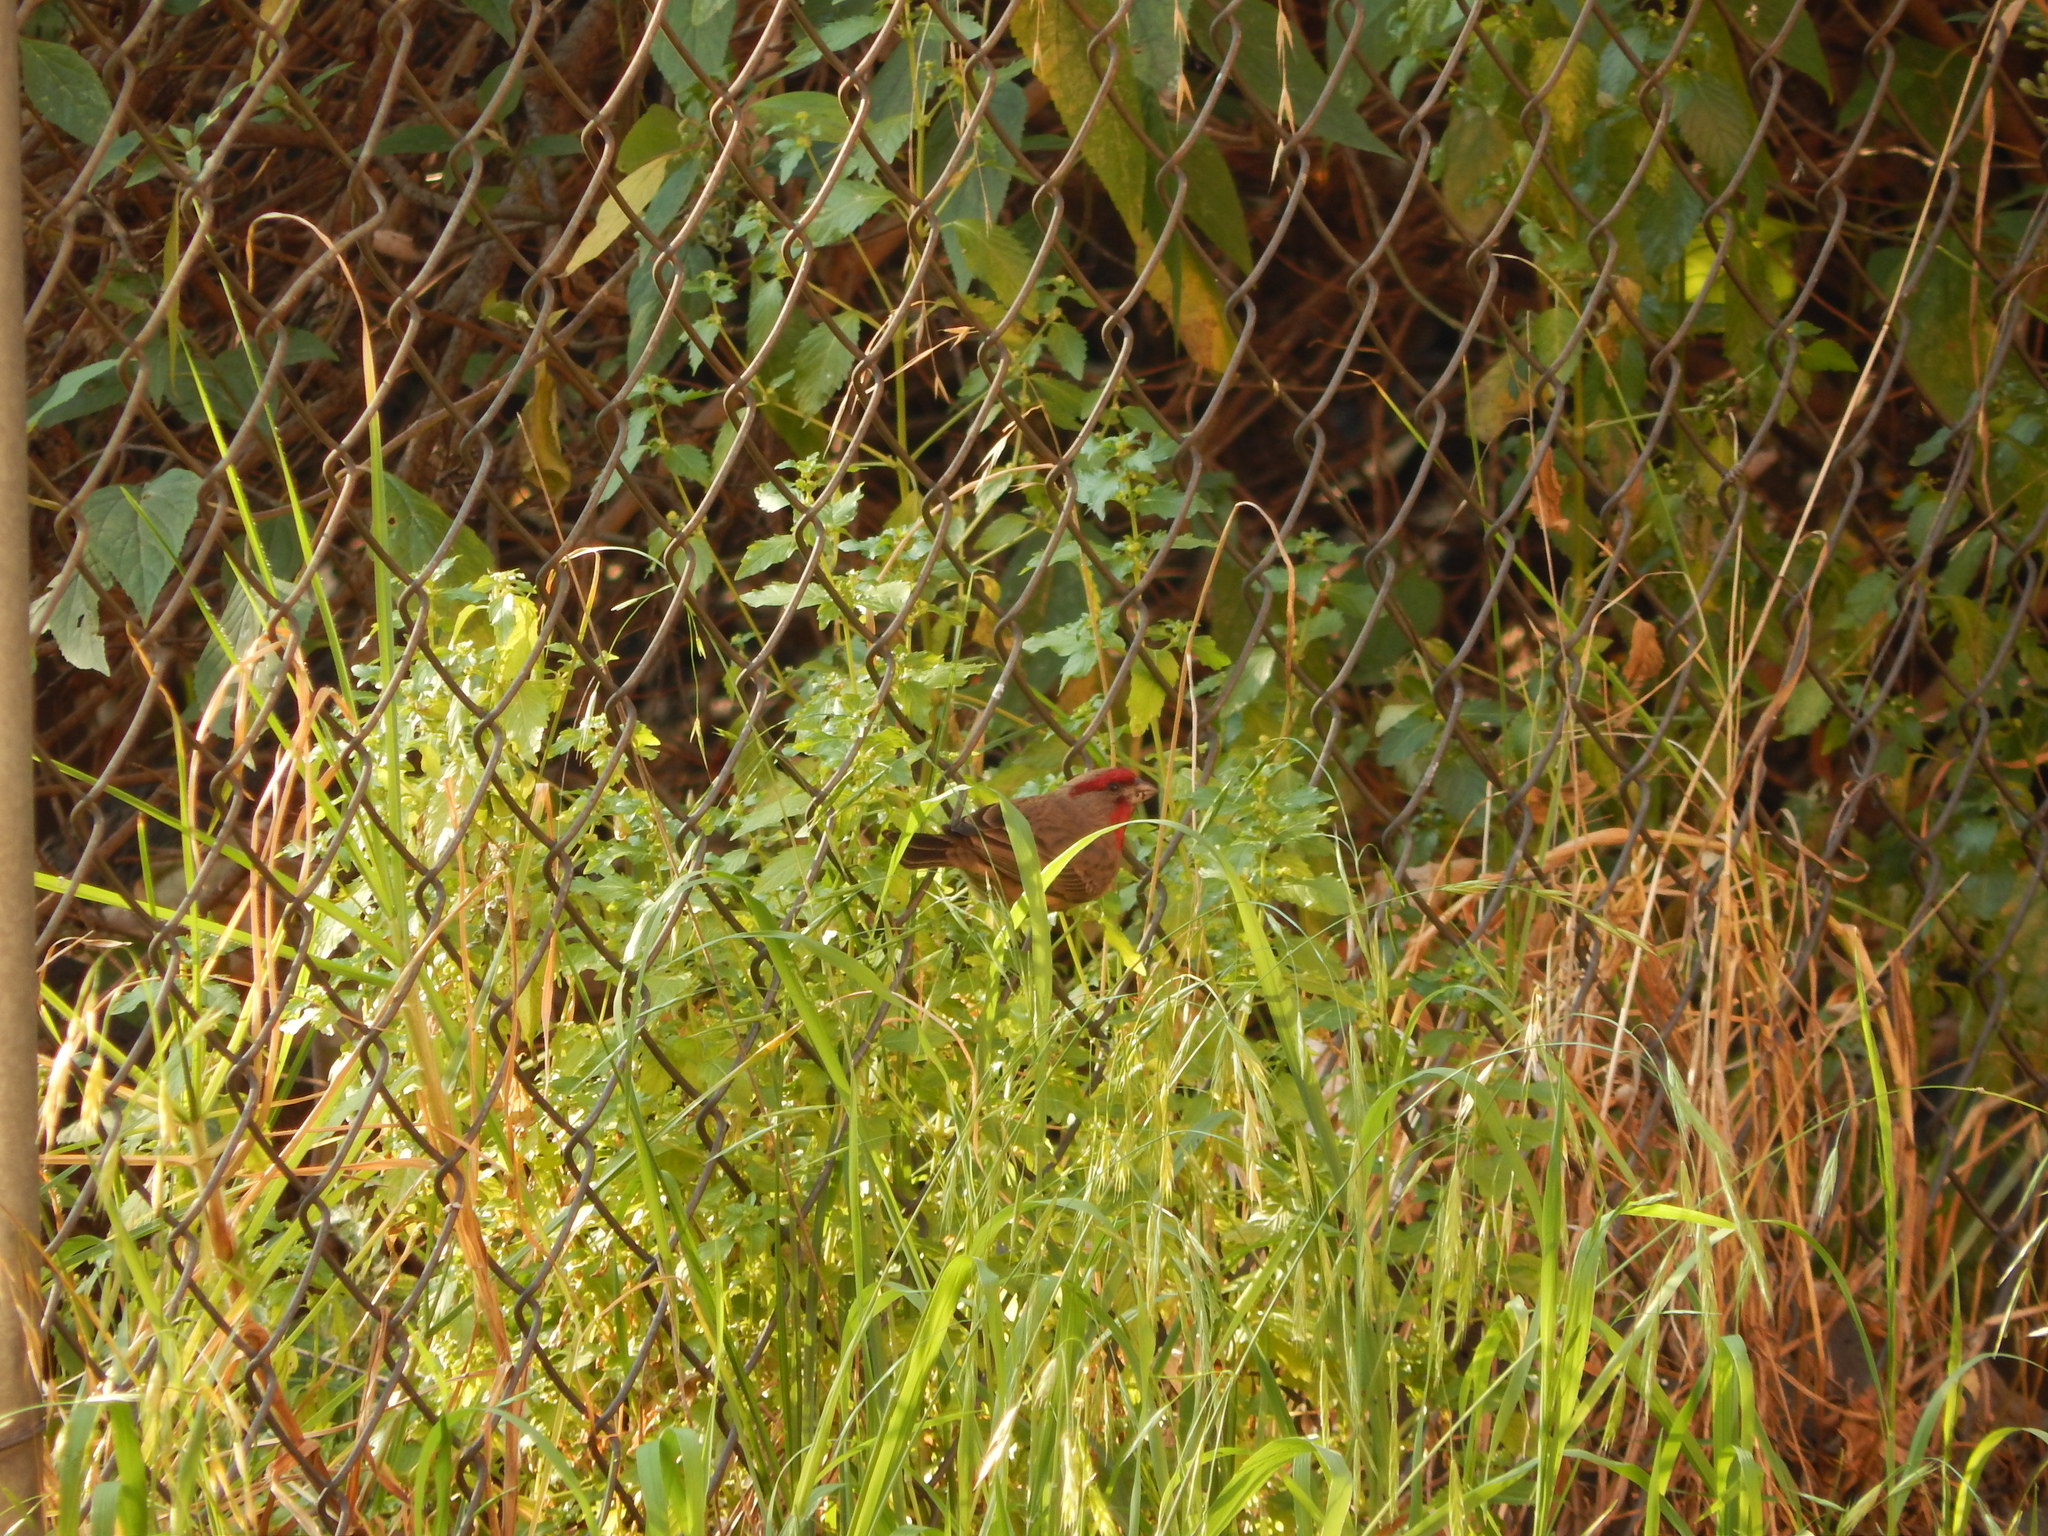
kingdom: Animalia
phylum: Chordata
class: Aves
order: Passeriformes
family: Fringillidae
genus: Haemorhous
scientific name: Haemorhous mexicanus
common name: House finch
